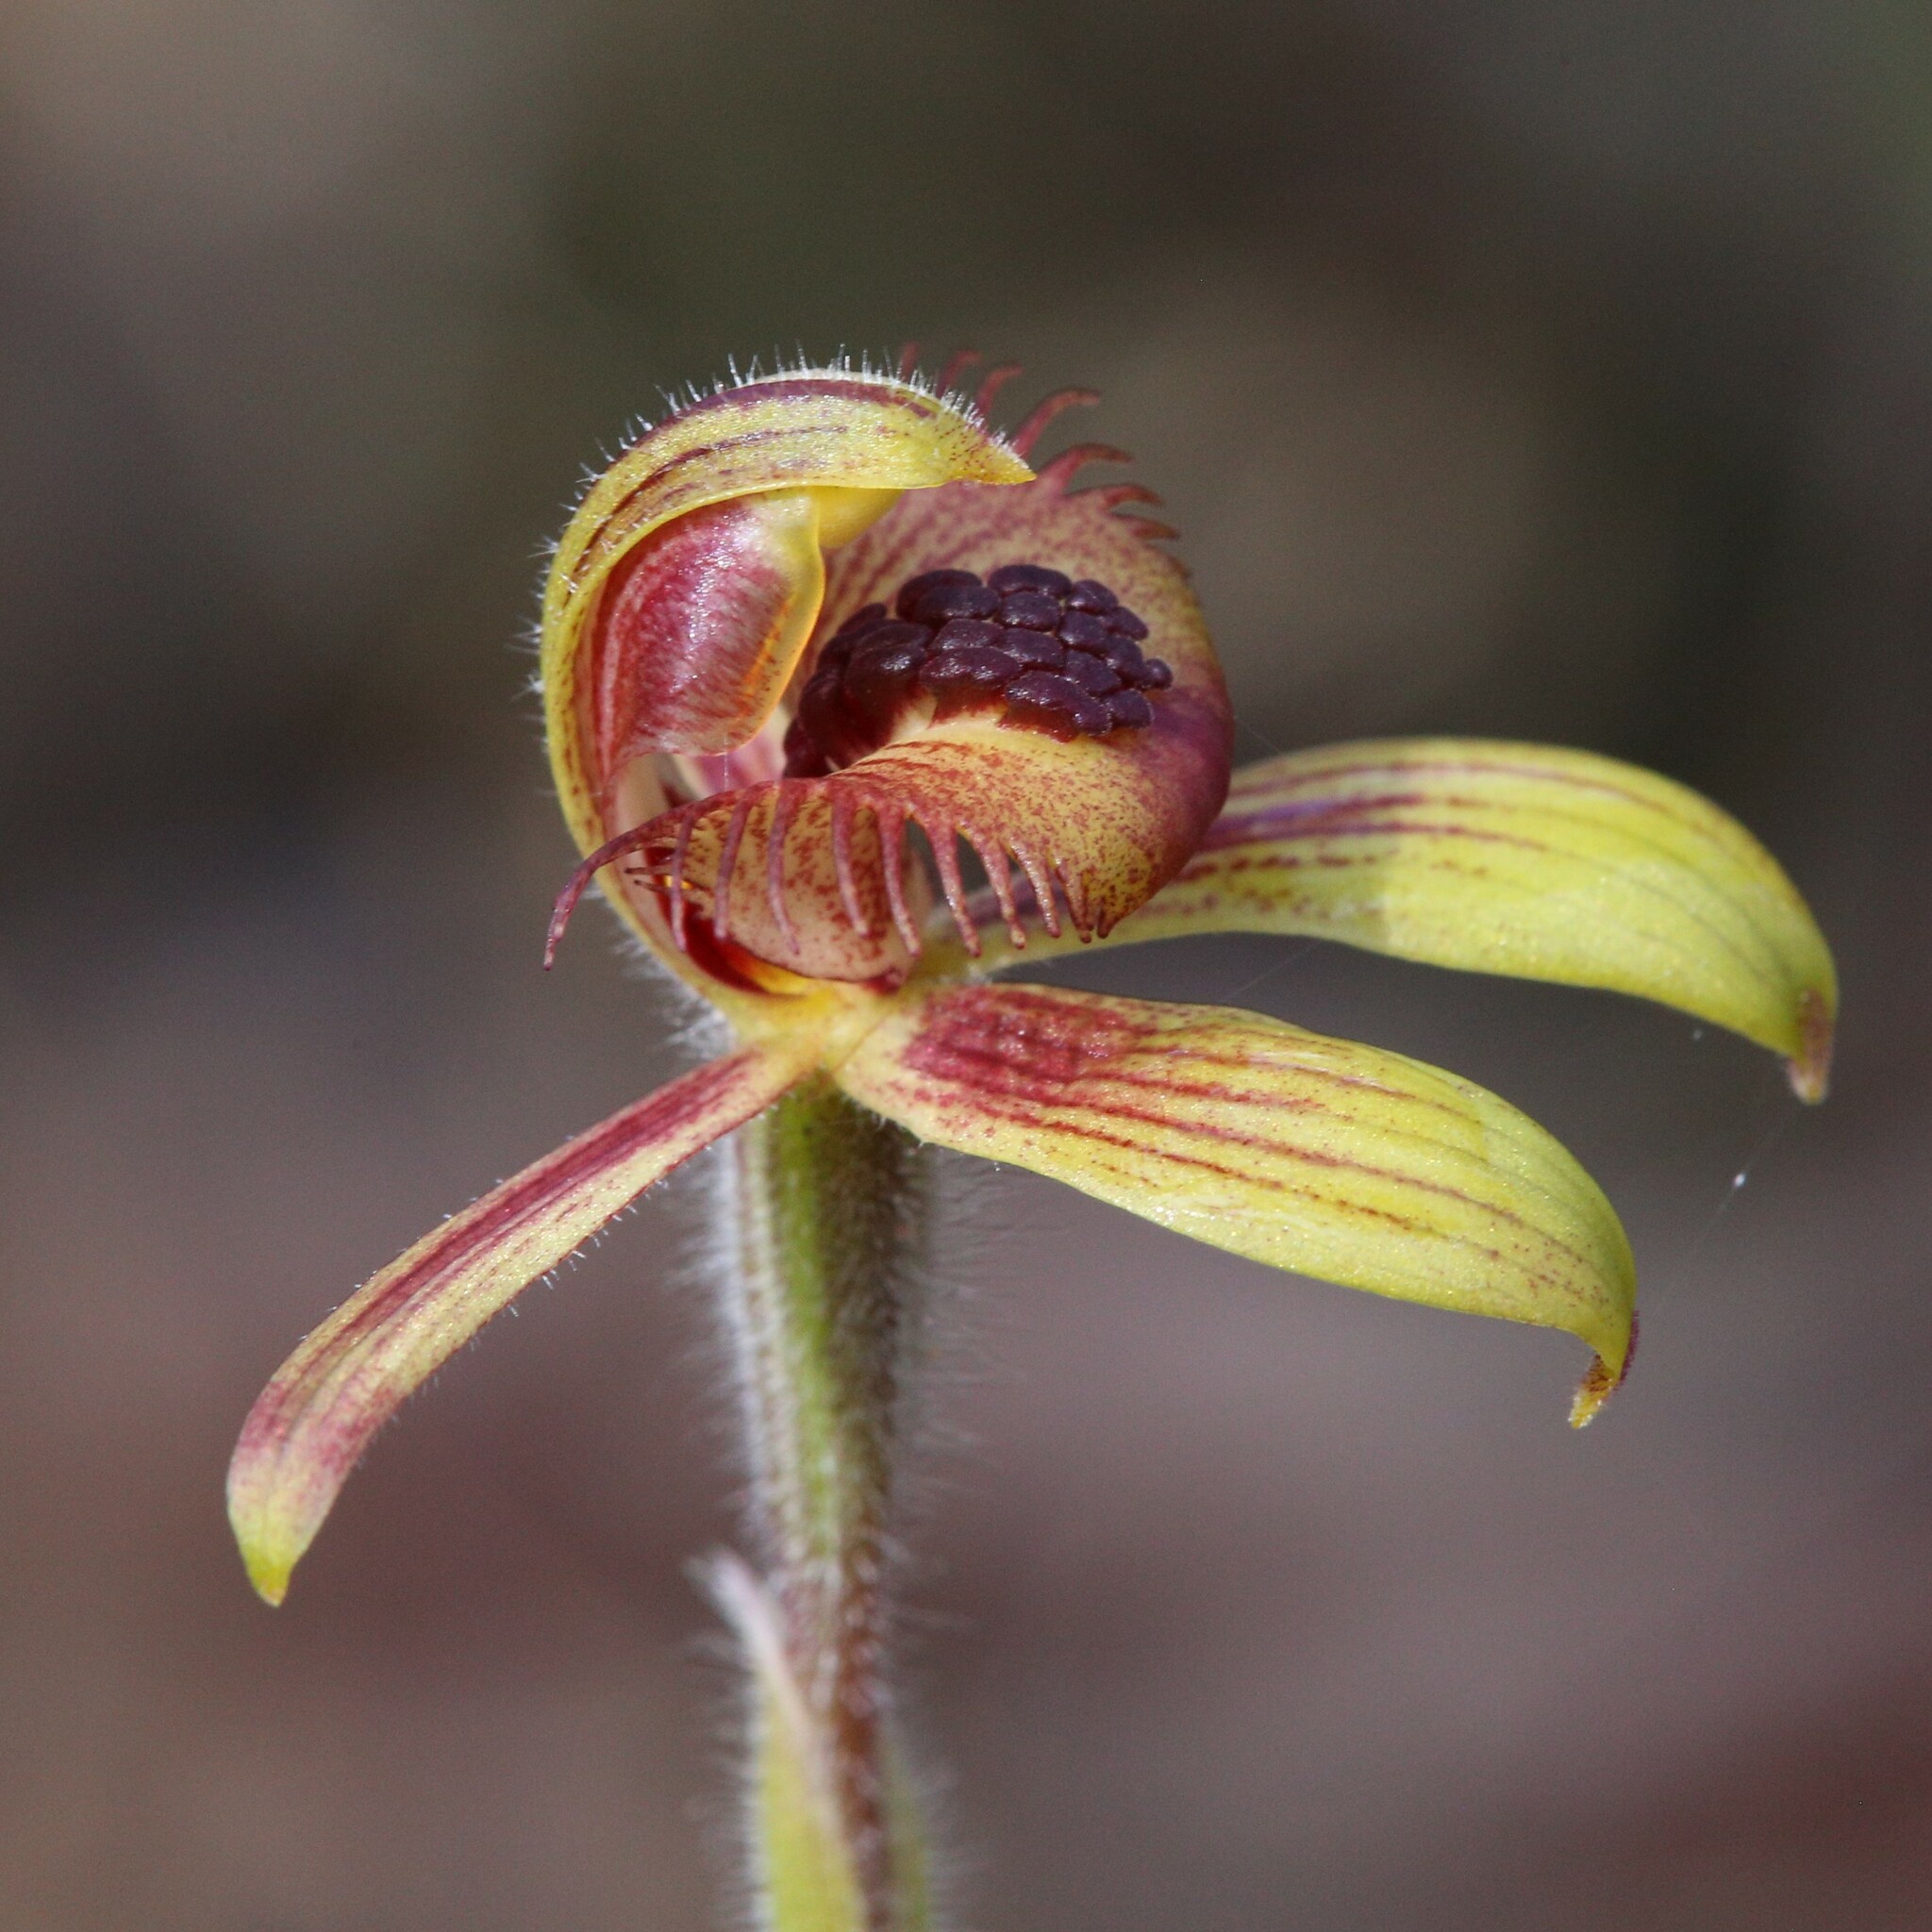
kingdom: Plantae
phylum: Tracheophyta
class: Liliopsida
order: Asparagales
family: Orchidaceae
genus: Caladenia
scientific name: Caladenia discoidea
